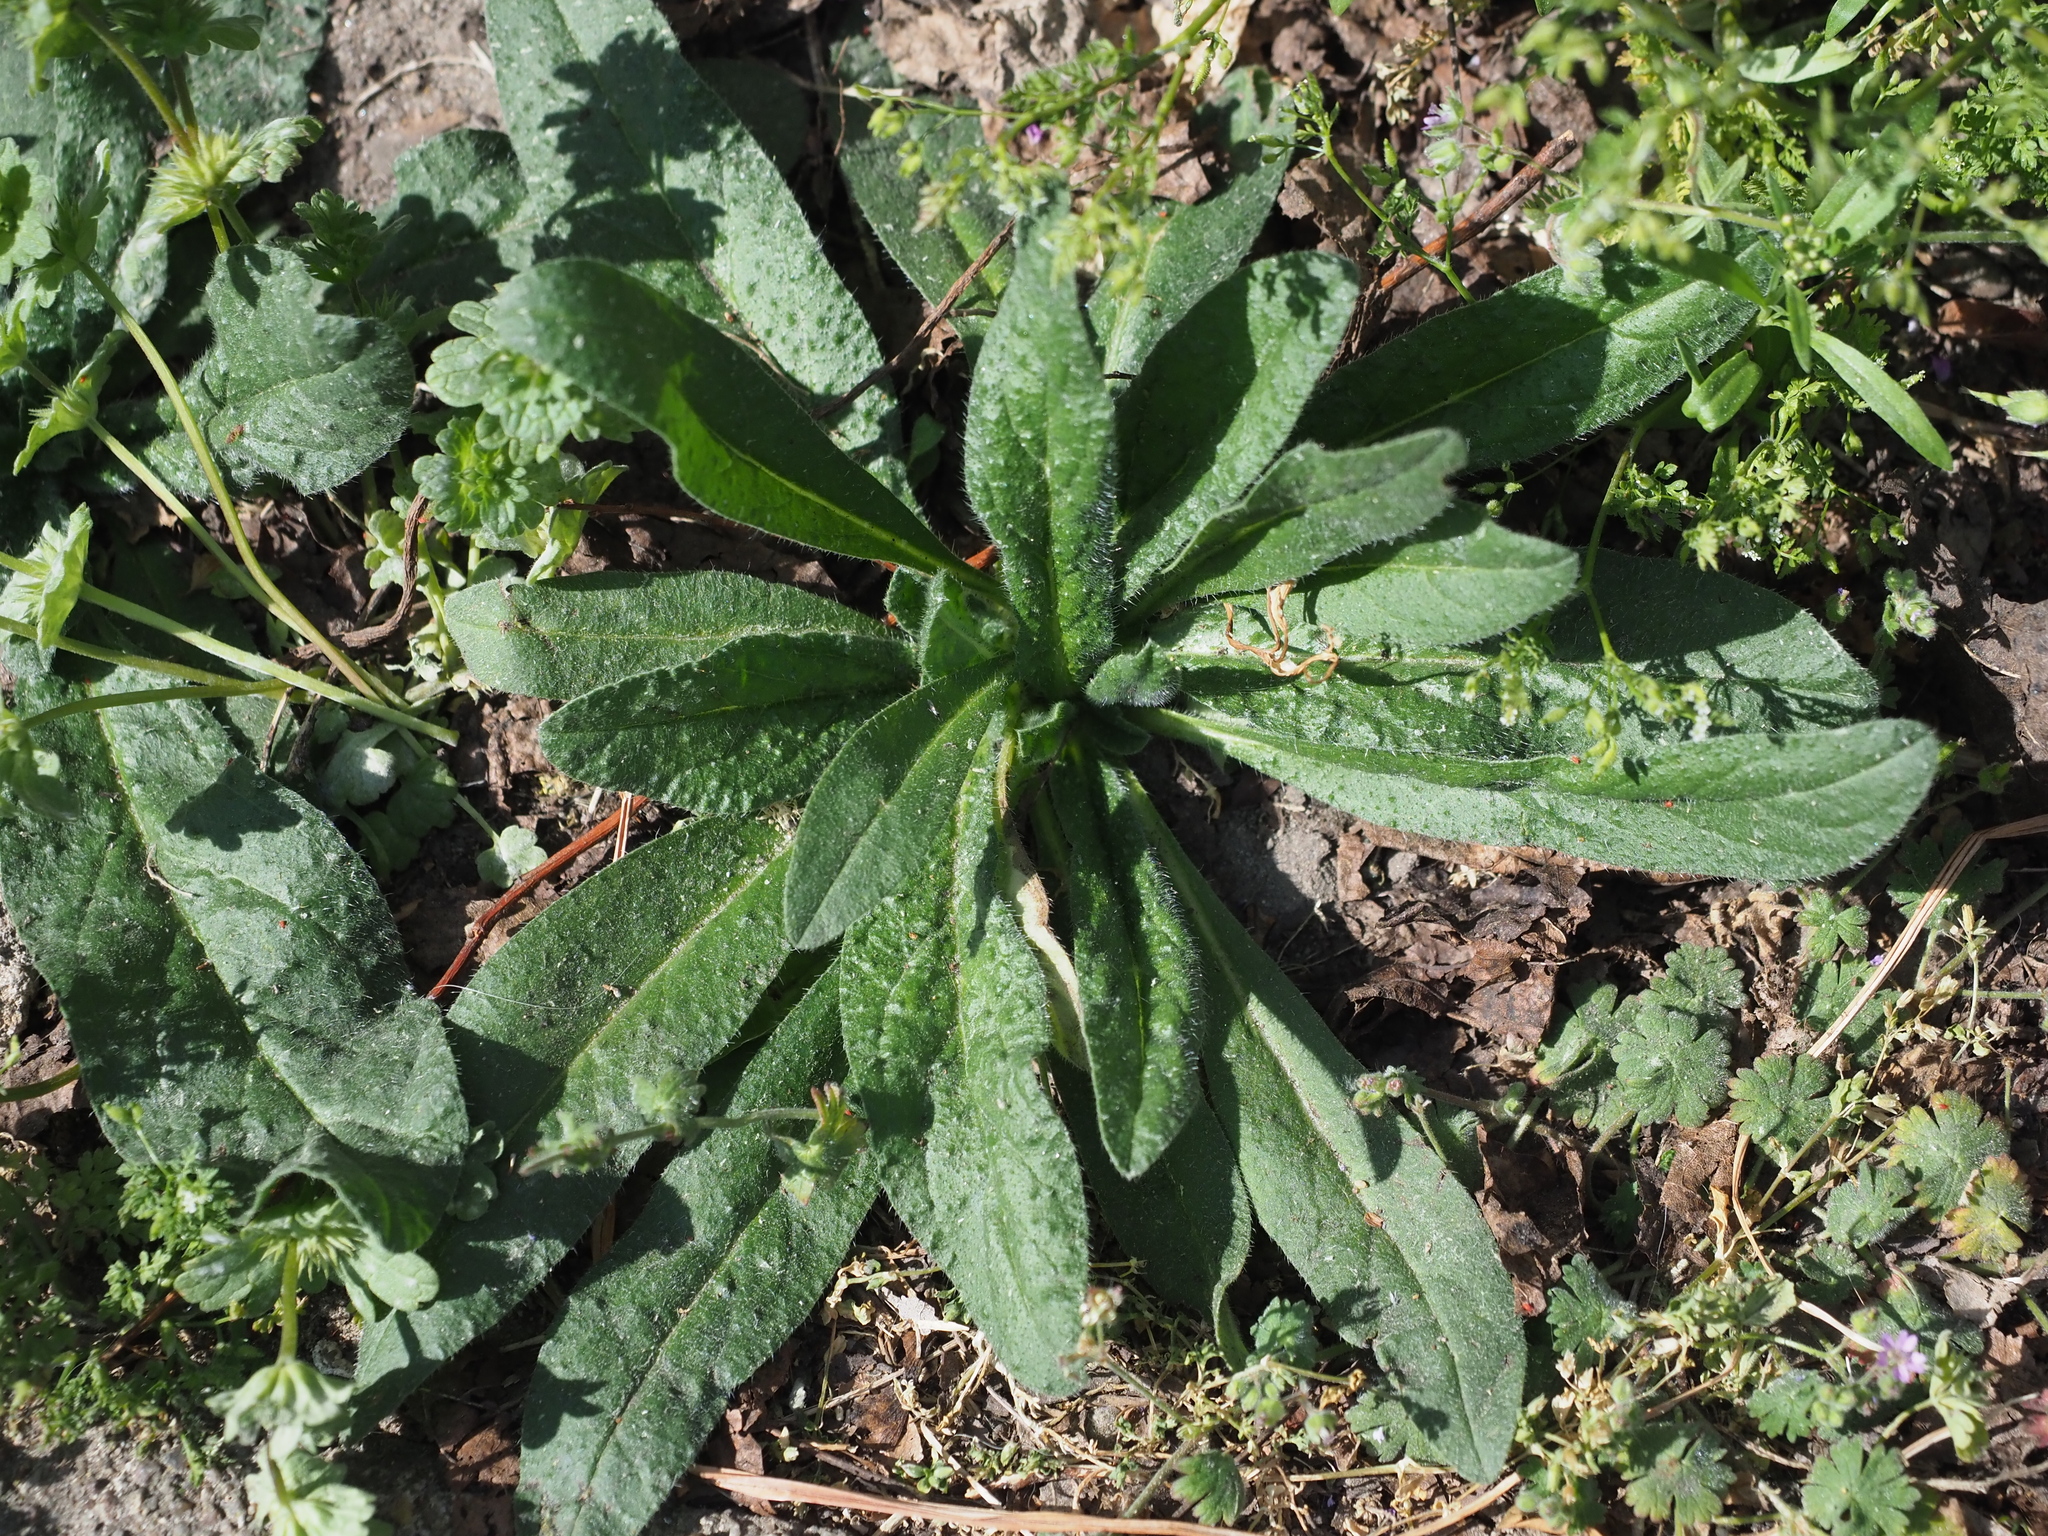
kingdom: Plantae
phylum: Tracheophyta
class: Magnoliopsida
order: Boraginales
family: Boraginaceae
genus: Echium
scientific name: Echium vulgare
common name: Common viper's bugloss
